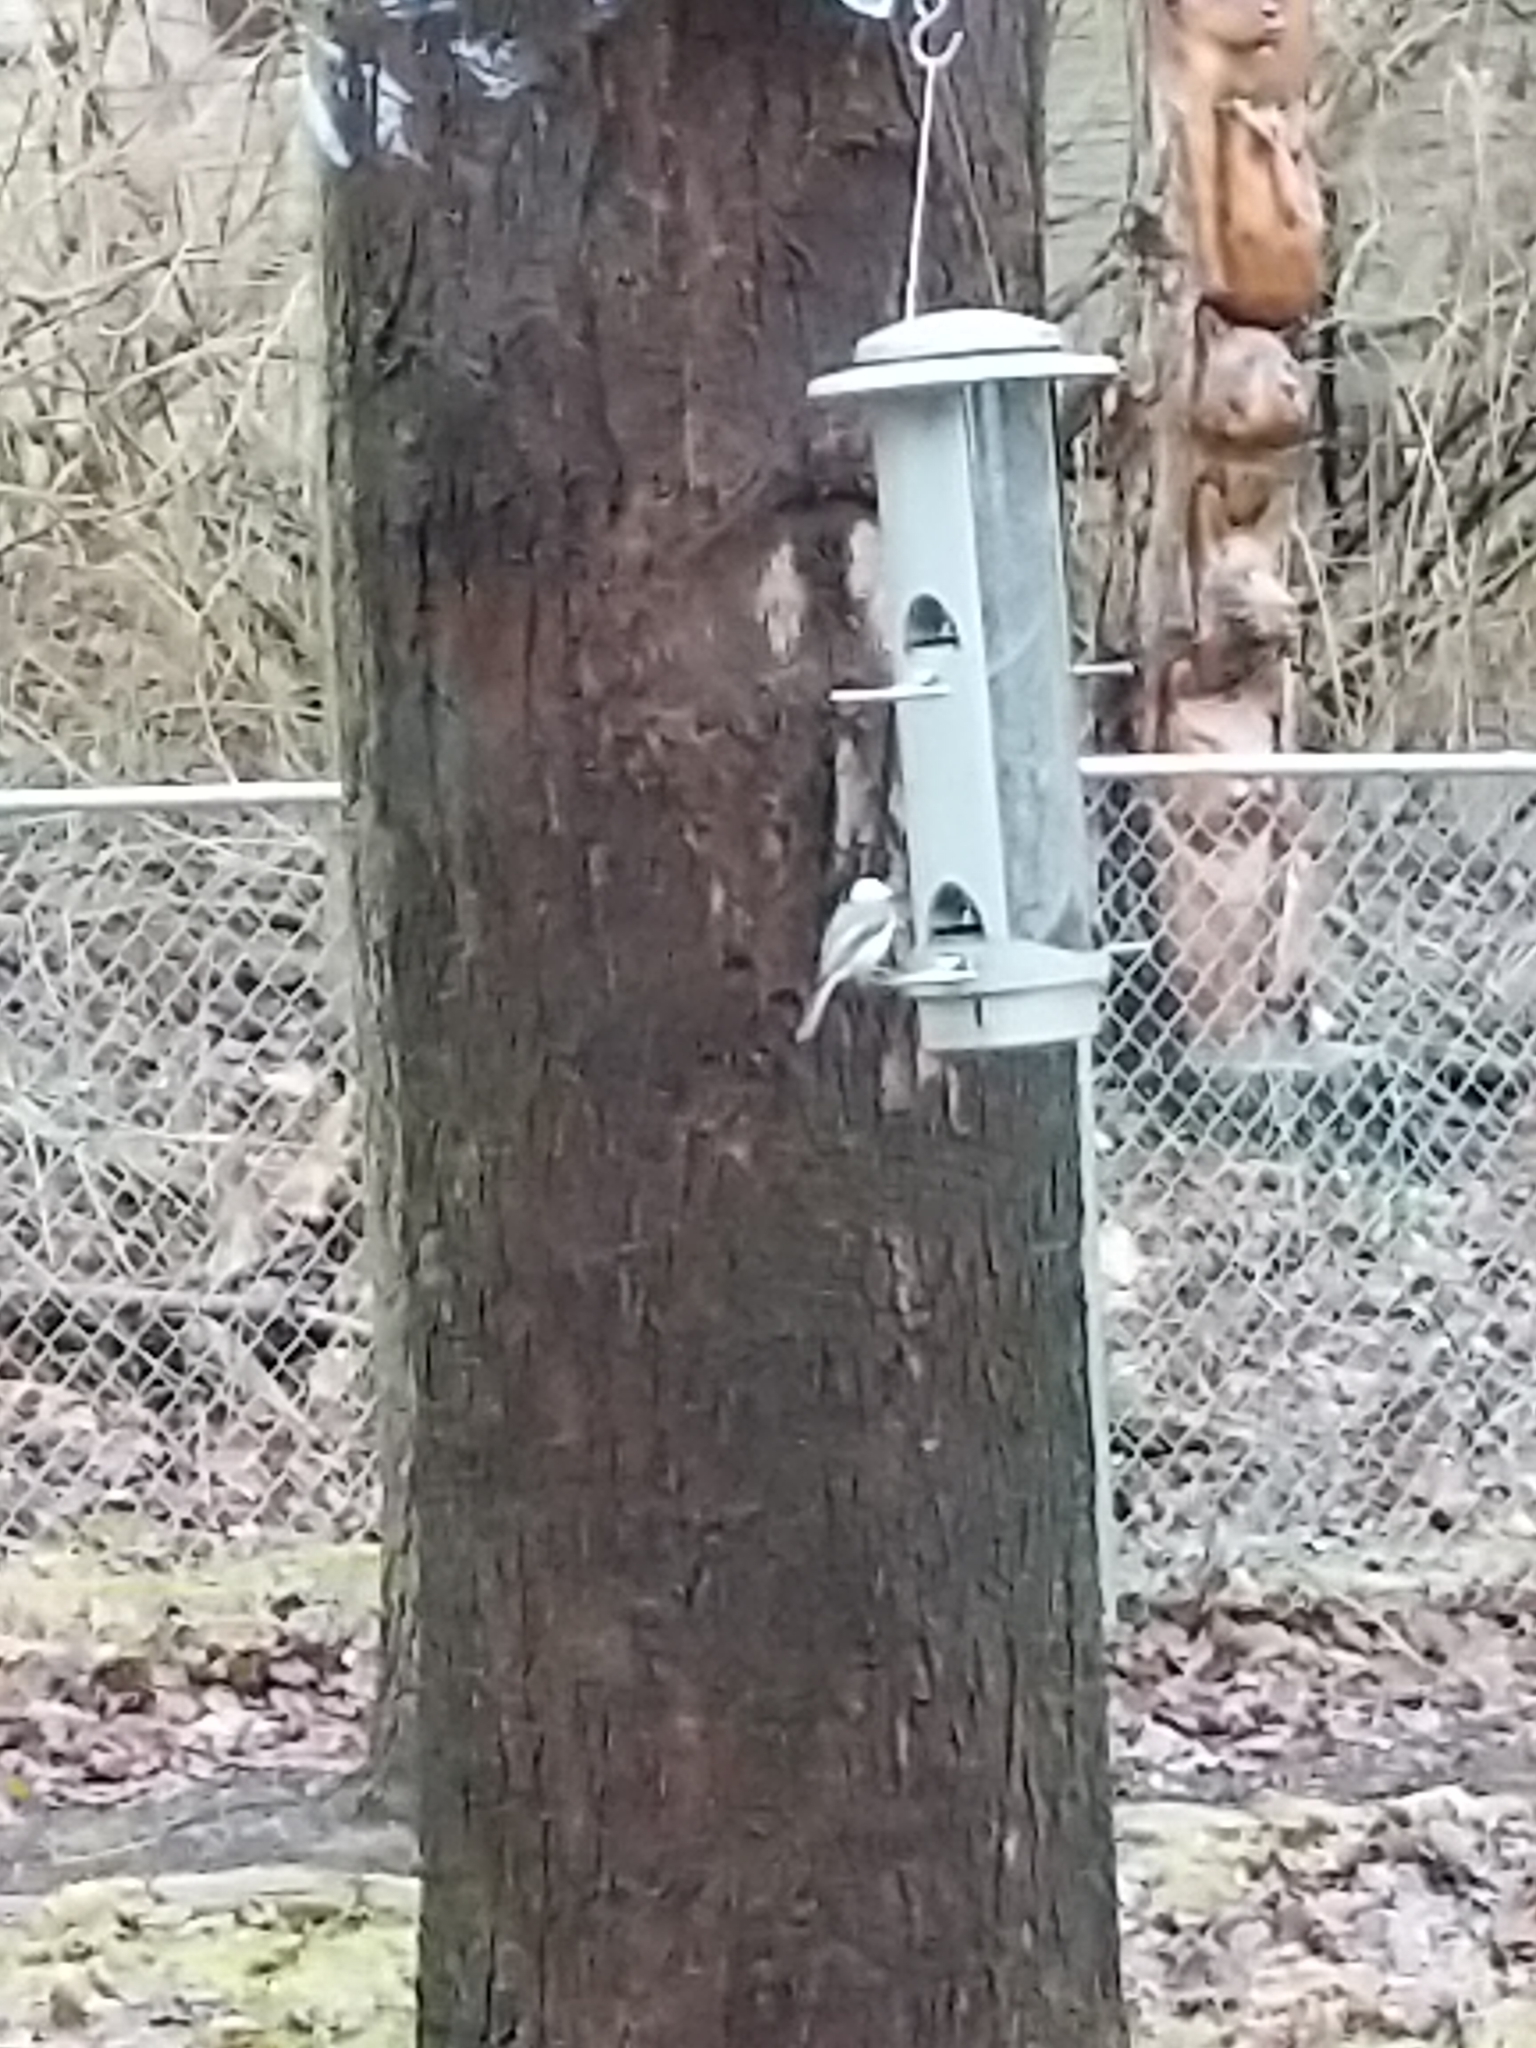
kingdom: Animalia
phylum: Chordata
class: Aves
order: Passeriformes
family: Paridae
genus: Poecile
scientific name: Poecile carolinensis
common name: Carolina chickadee
